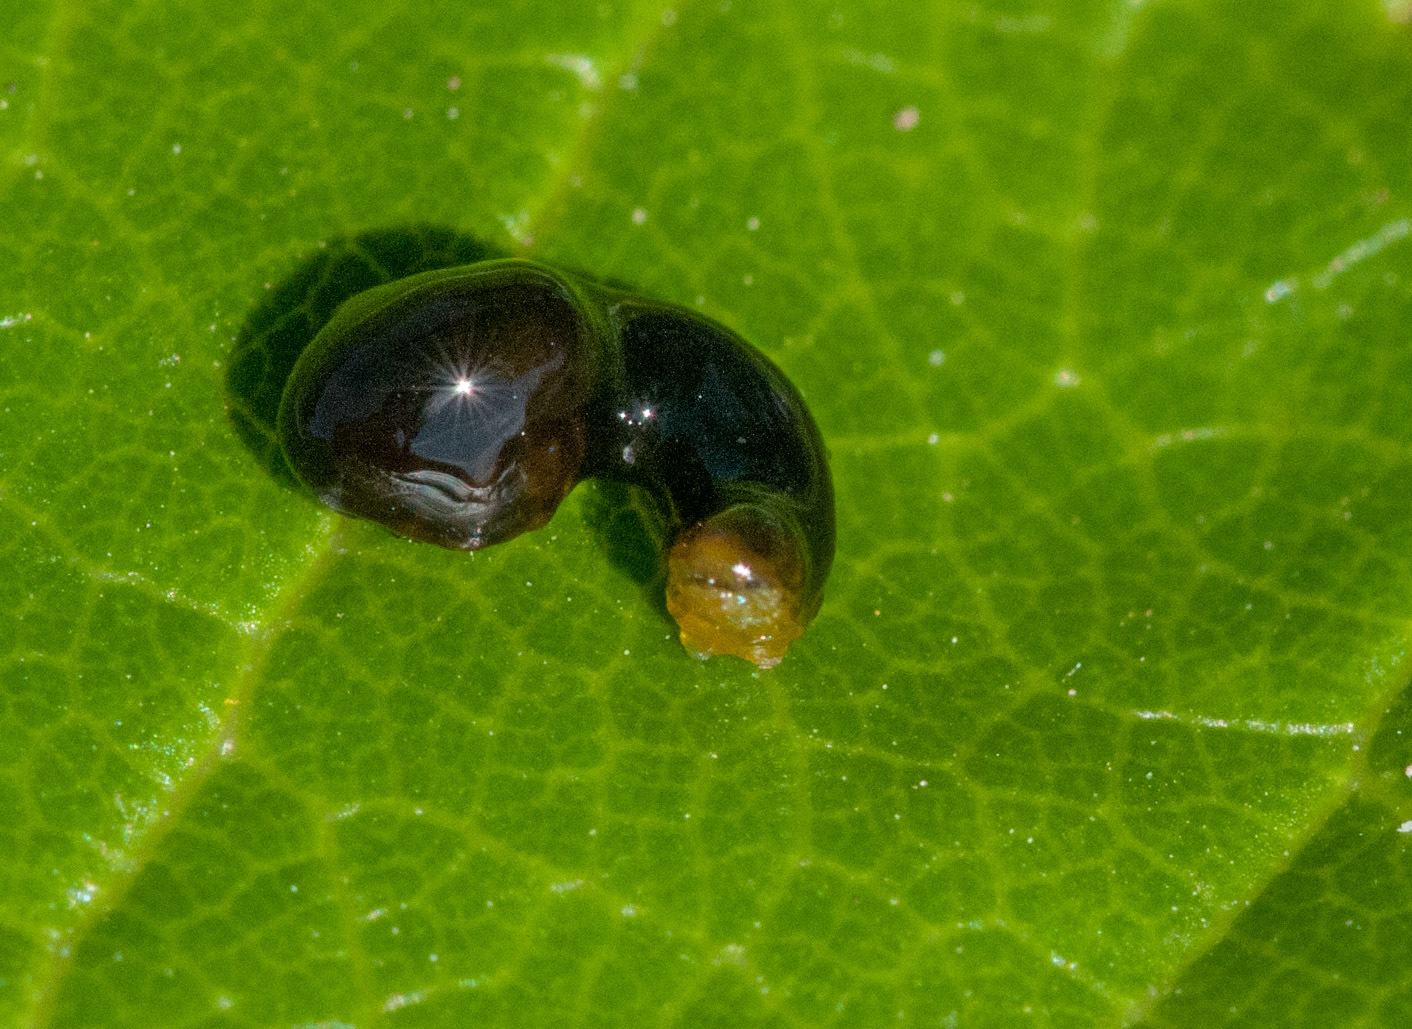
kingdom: Animalia
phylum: Arthropoda
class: Insecta
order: Hymenoptera
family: Tenthredinidae
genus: Caliroa
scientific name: Caliroa cerasi
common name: Pear sawfly
